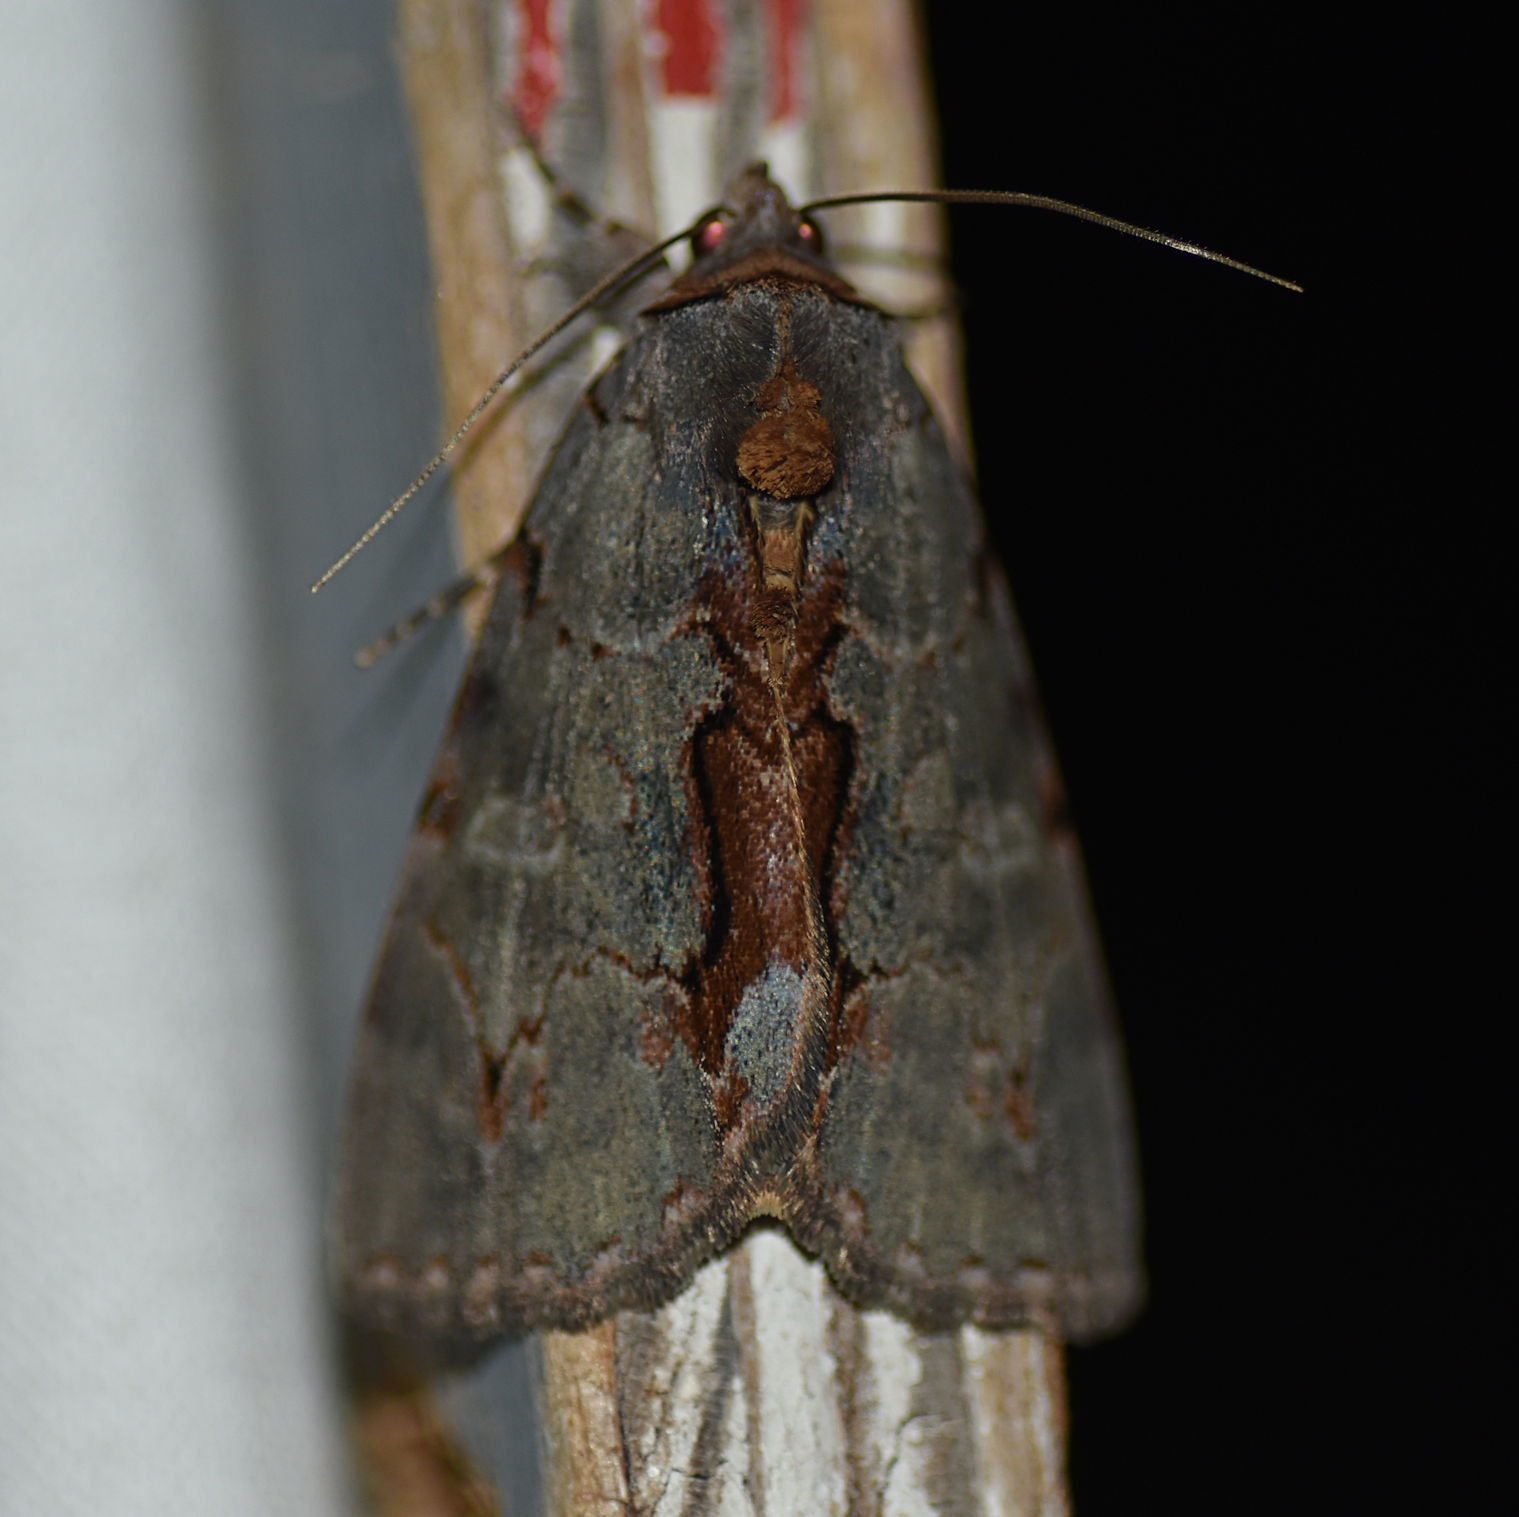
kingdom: Animalia
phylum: Arthropoda
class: Insecta
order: Lepidoptera
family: Erebidae
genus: Catocala
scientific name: Catocala grynea
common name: Woody underwing
